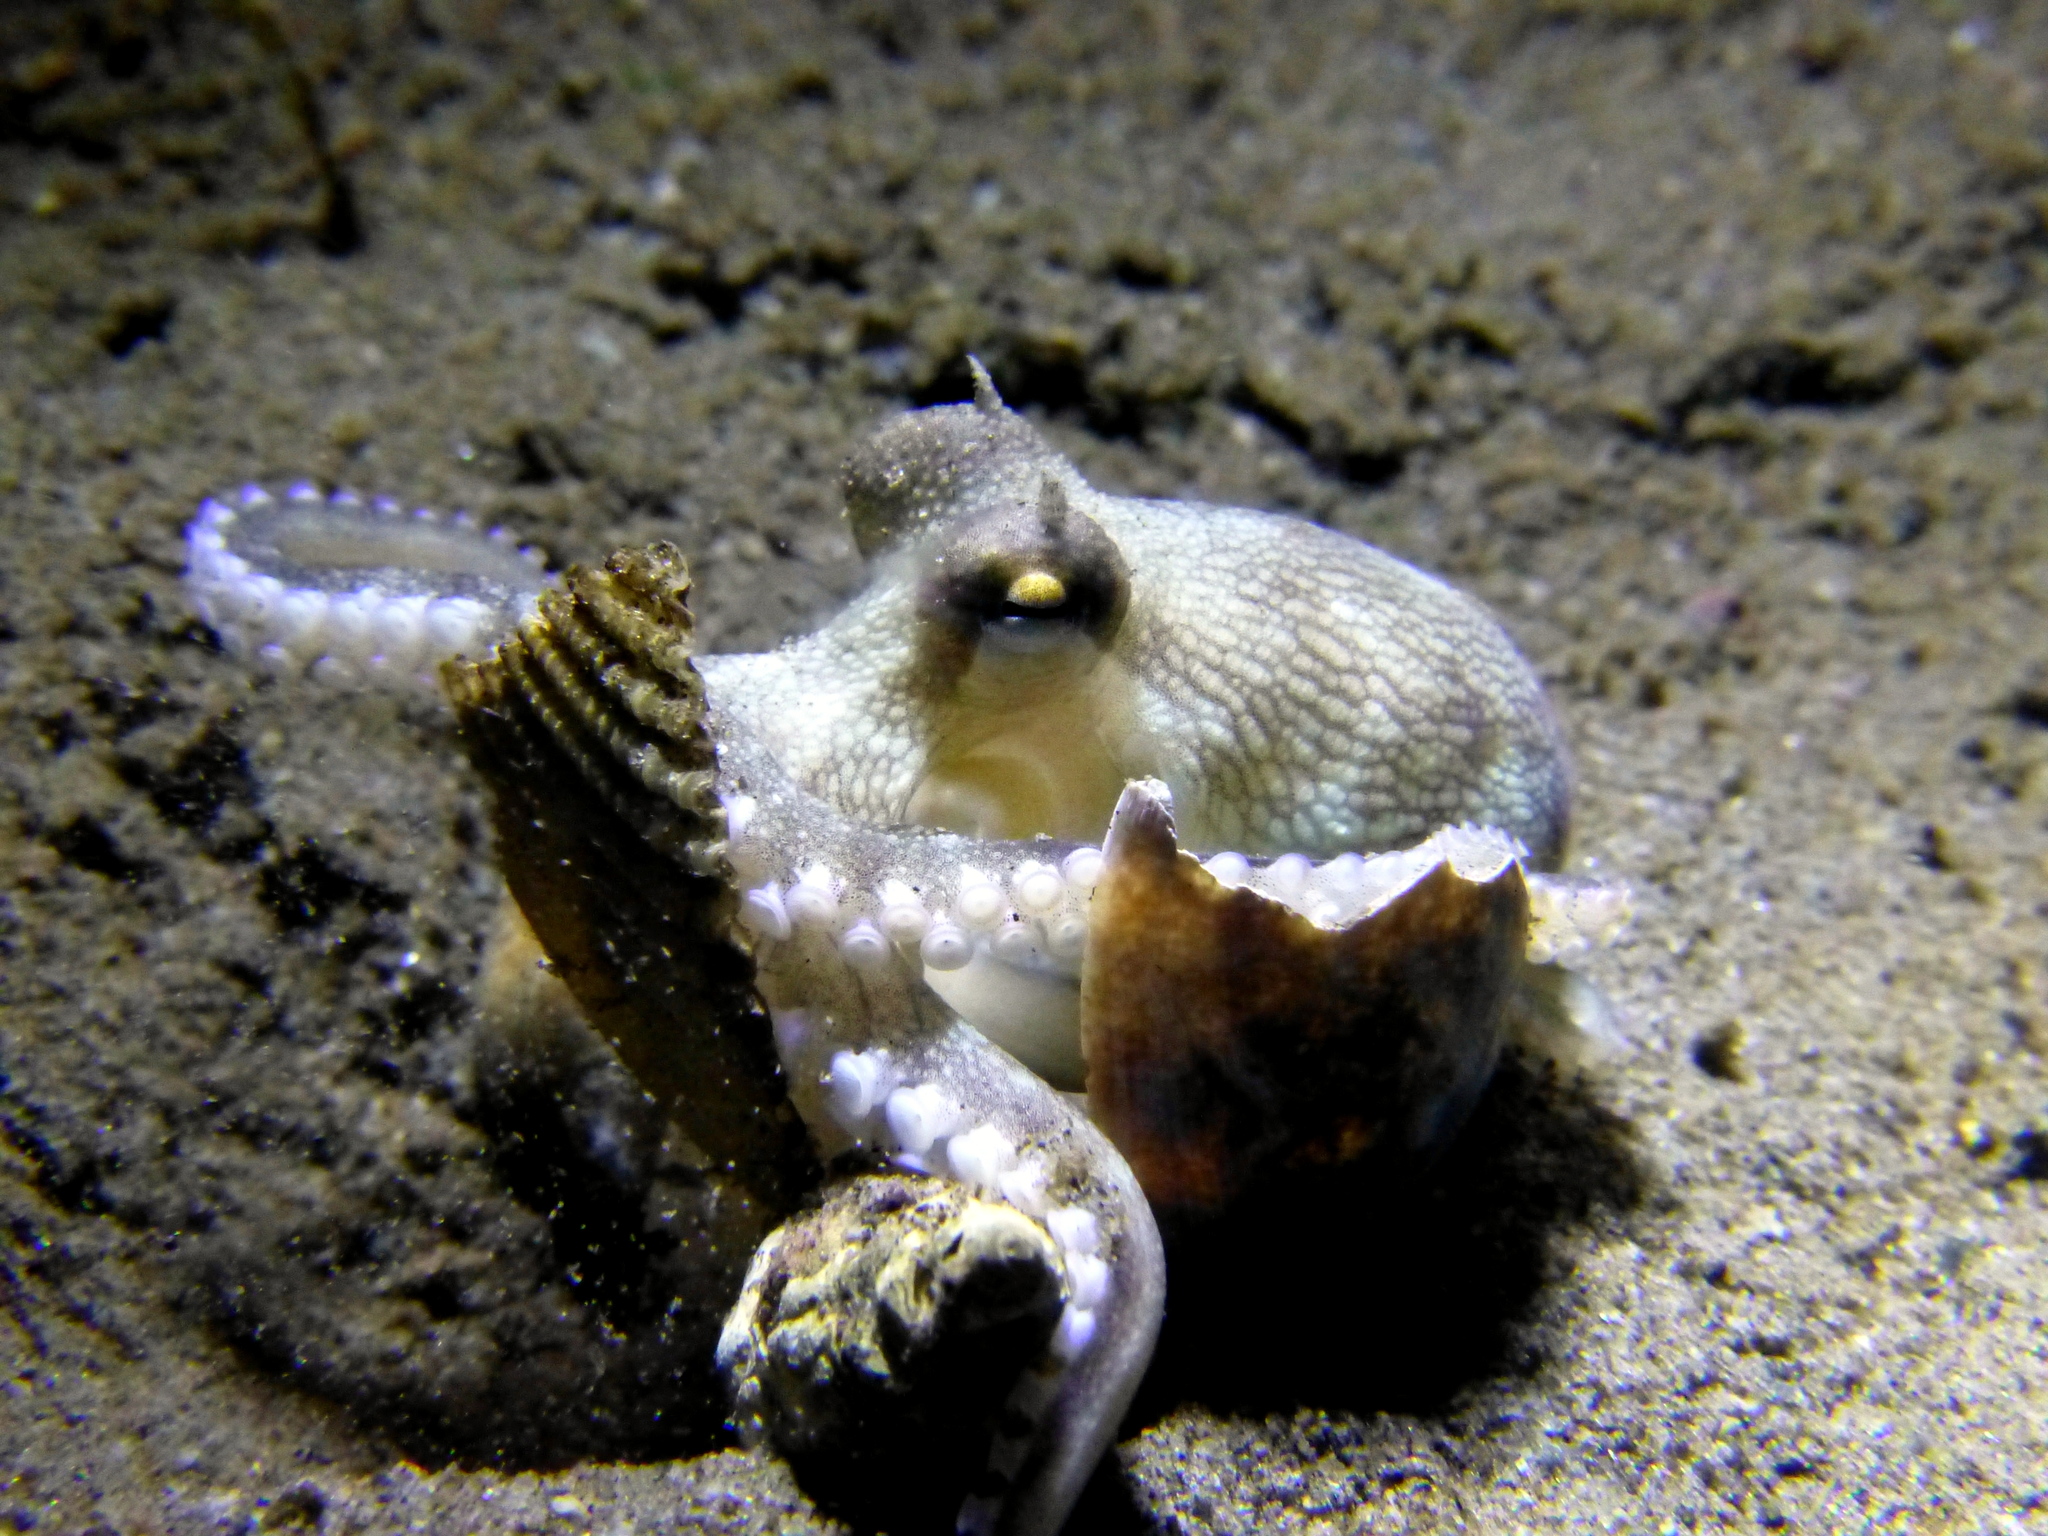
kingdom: Animalia
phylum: Mollusca
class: Cephalopoda
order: Octopoda
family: Octopodidae
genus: Amphioctopus
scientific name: Amphioctopus marginatus
